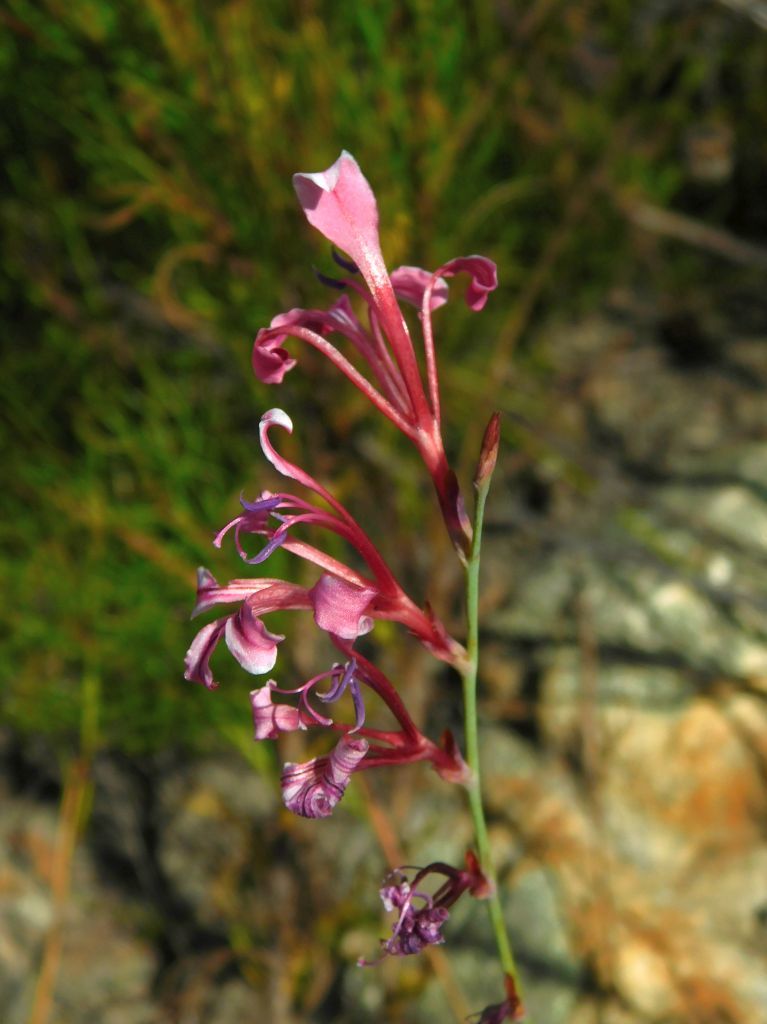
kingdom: Plantae
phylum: Tracheophyta
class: Liliopsida
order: Asparagales
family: Iridaceae
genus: Tritoniopsis
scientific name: Tritoniopsis ramosa
